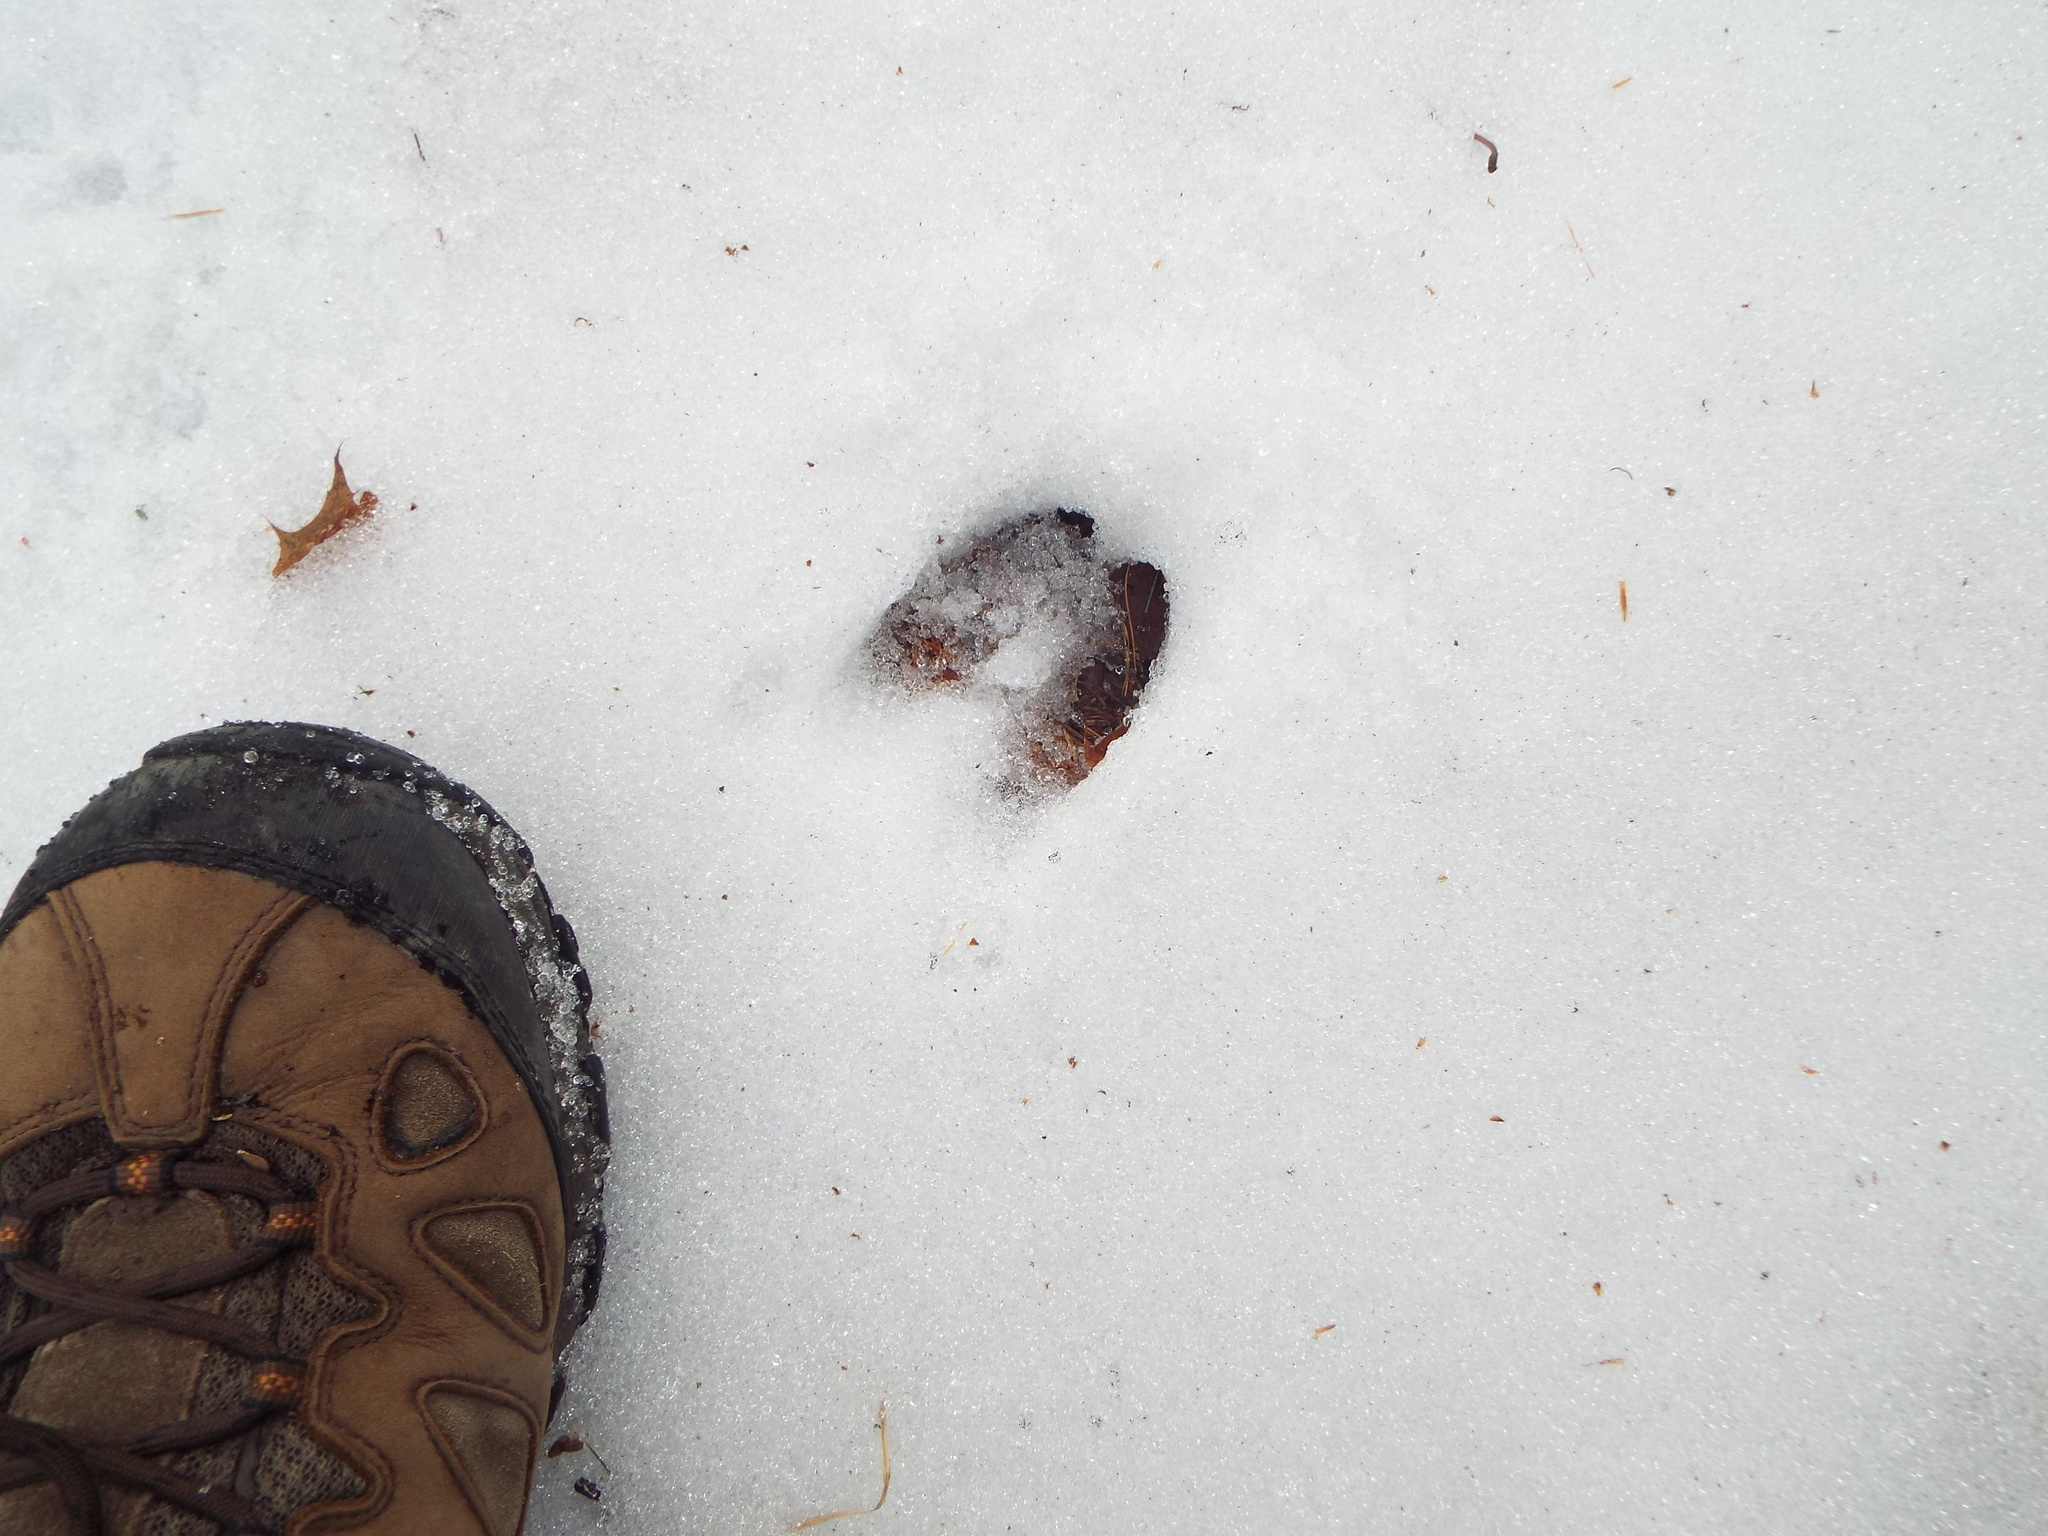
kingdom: Animalia
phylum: Chordata
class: Mammalia
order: Artiodactyla
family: Cervidae
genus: Odocoileus
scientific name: Odocoileus virginianus
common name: White-tailed deer
